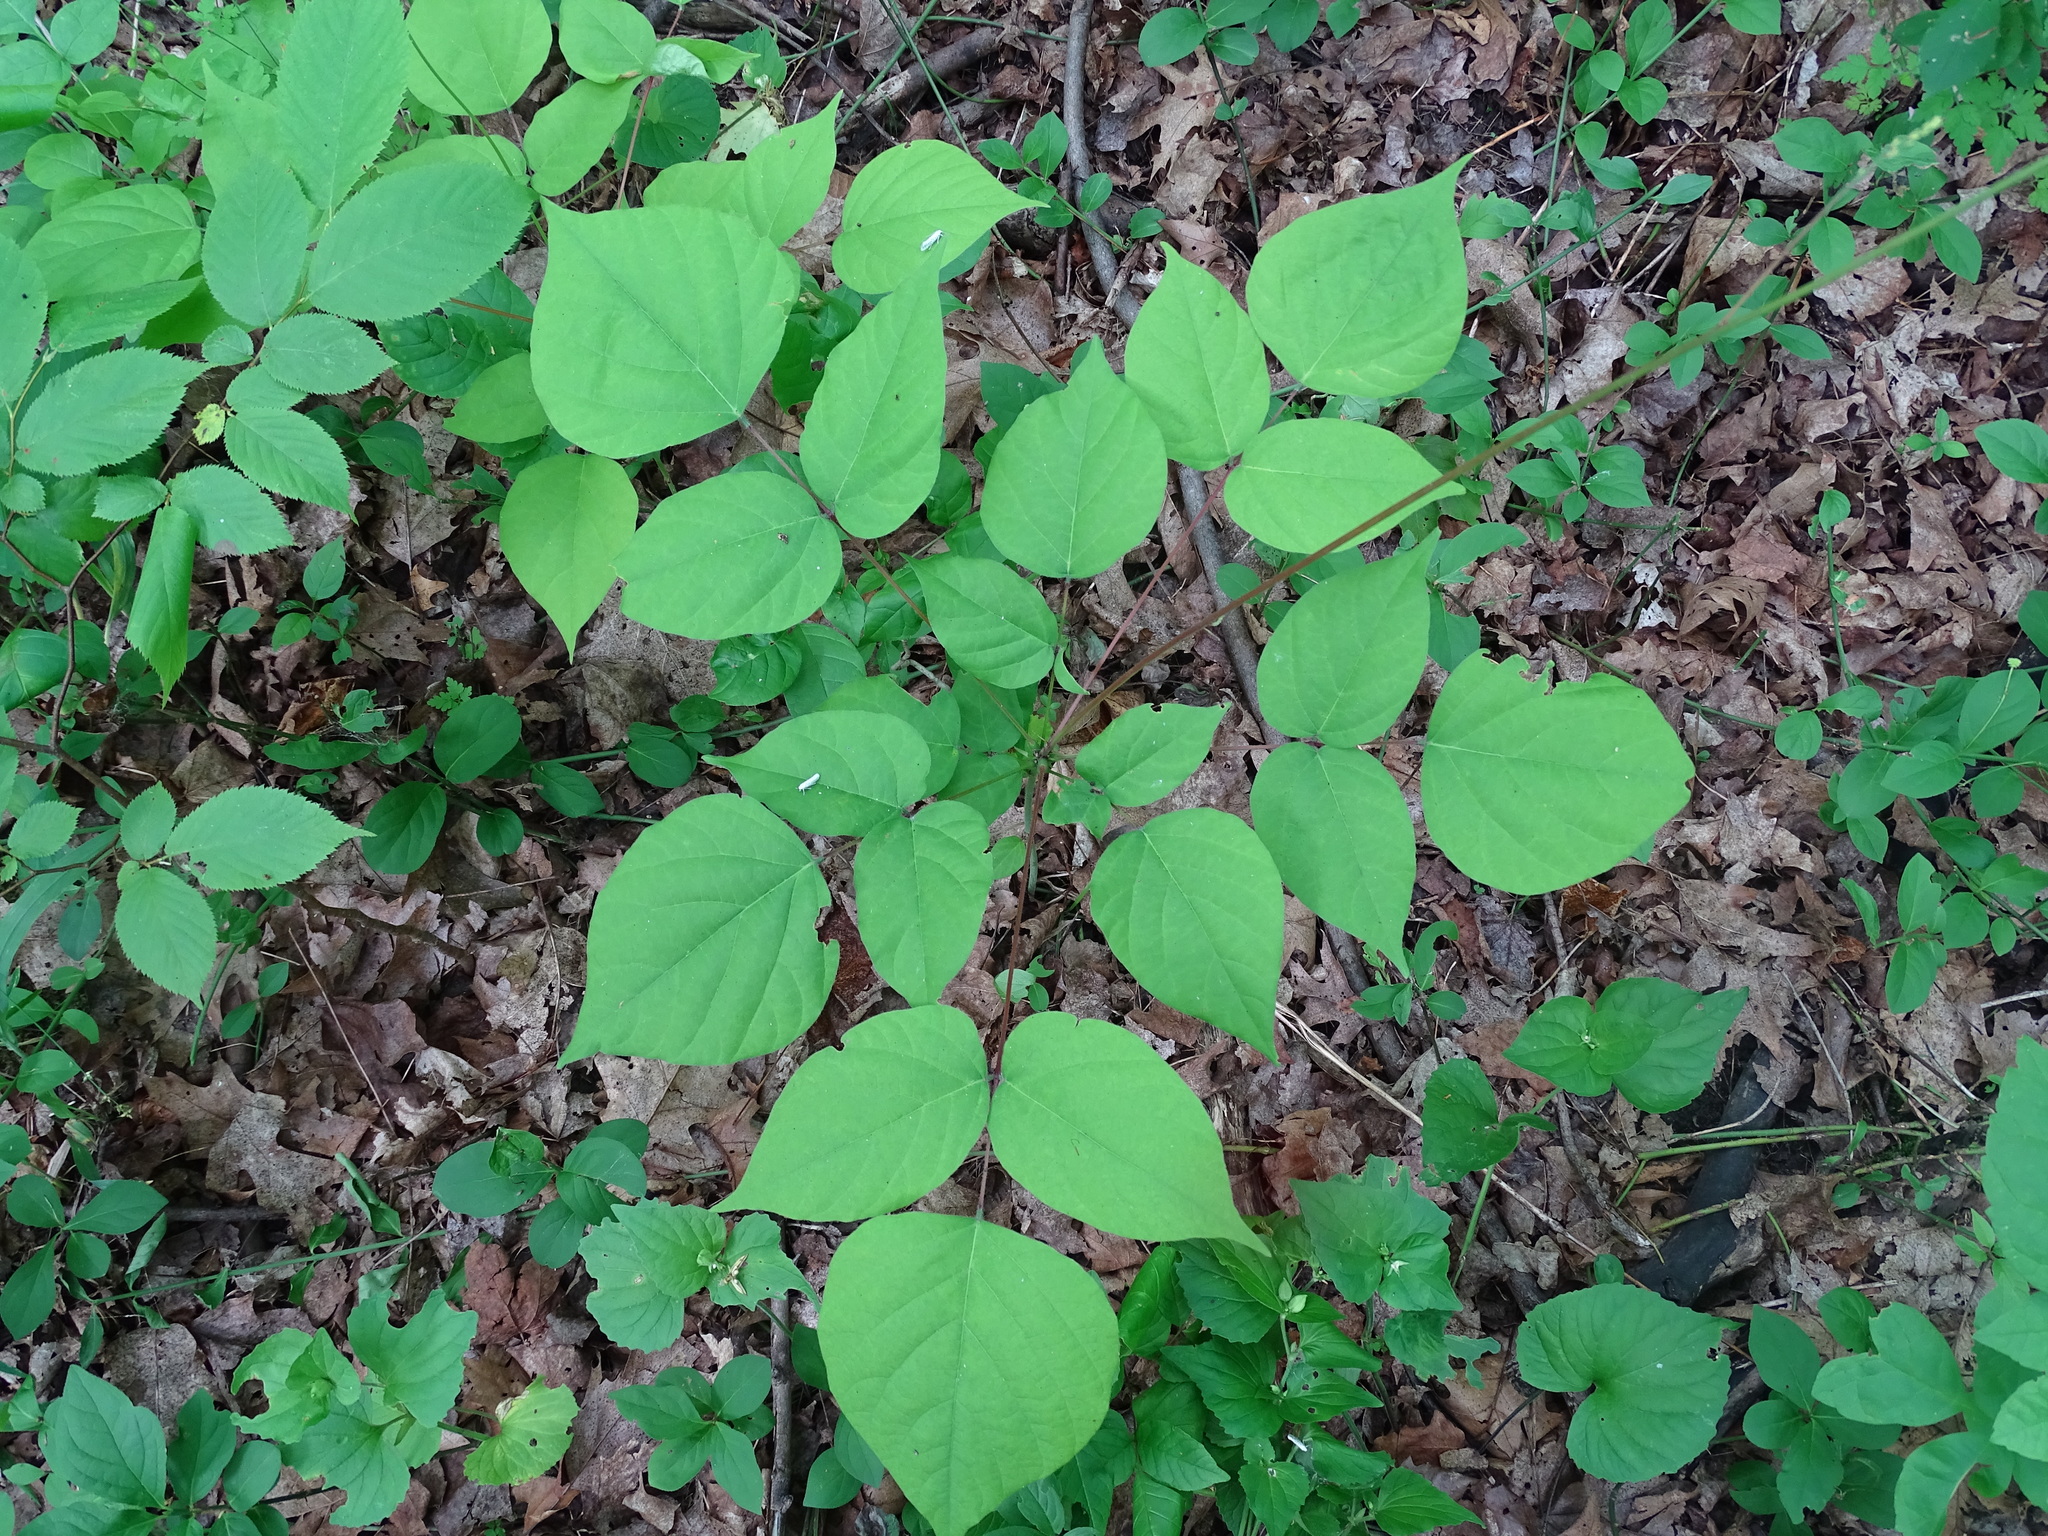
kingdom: Plantae
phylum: Tracheophyta
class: Magnoliopsida
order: Fabales
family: Fabaceae
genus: Hylodesmum
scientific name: Hylodesmum glutinosum
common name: Clustered-leaved tick-trefoil
